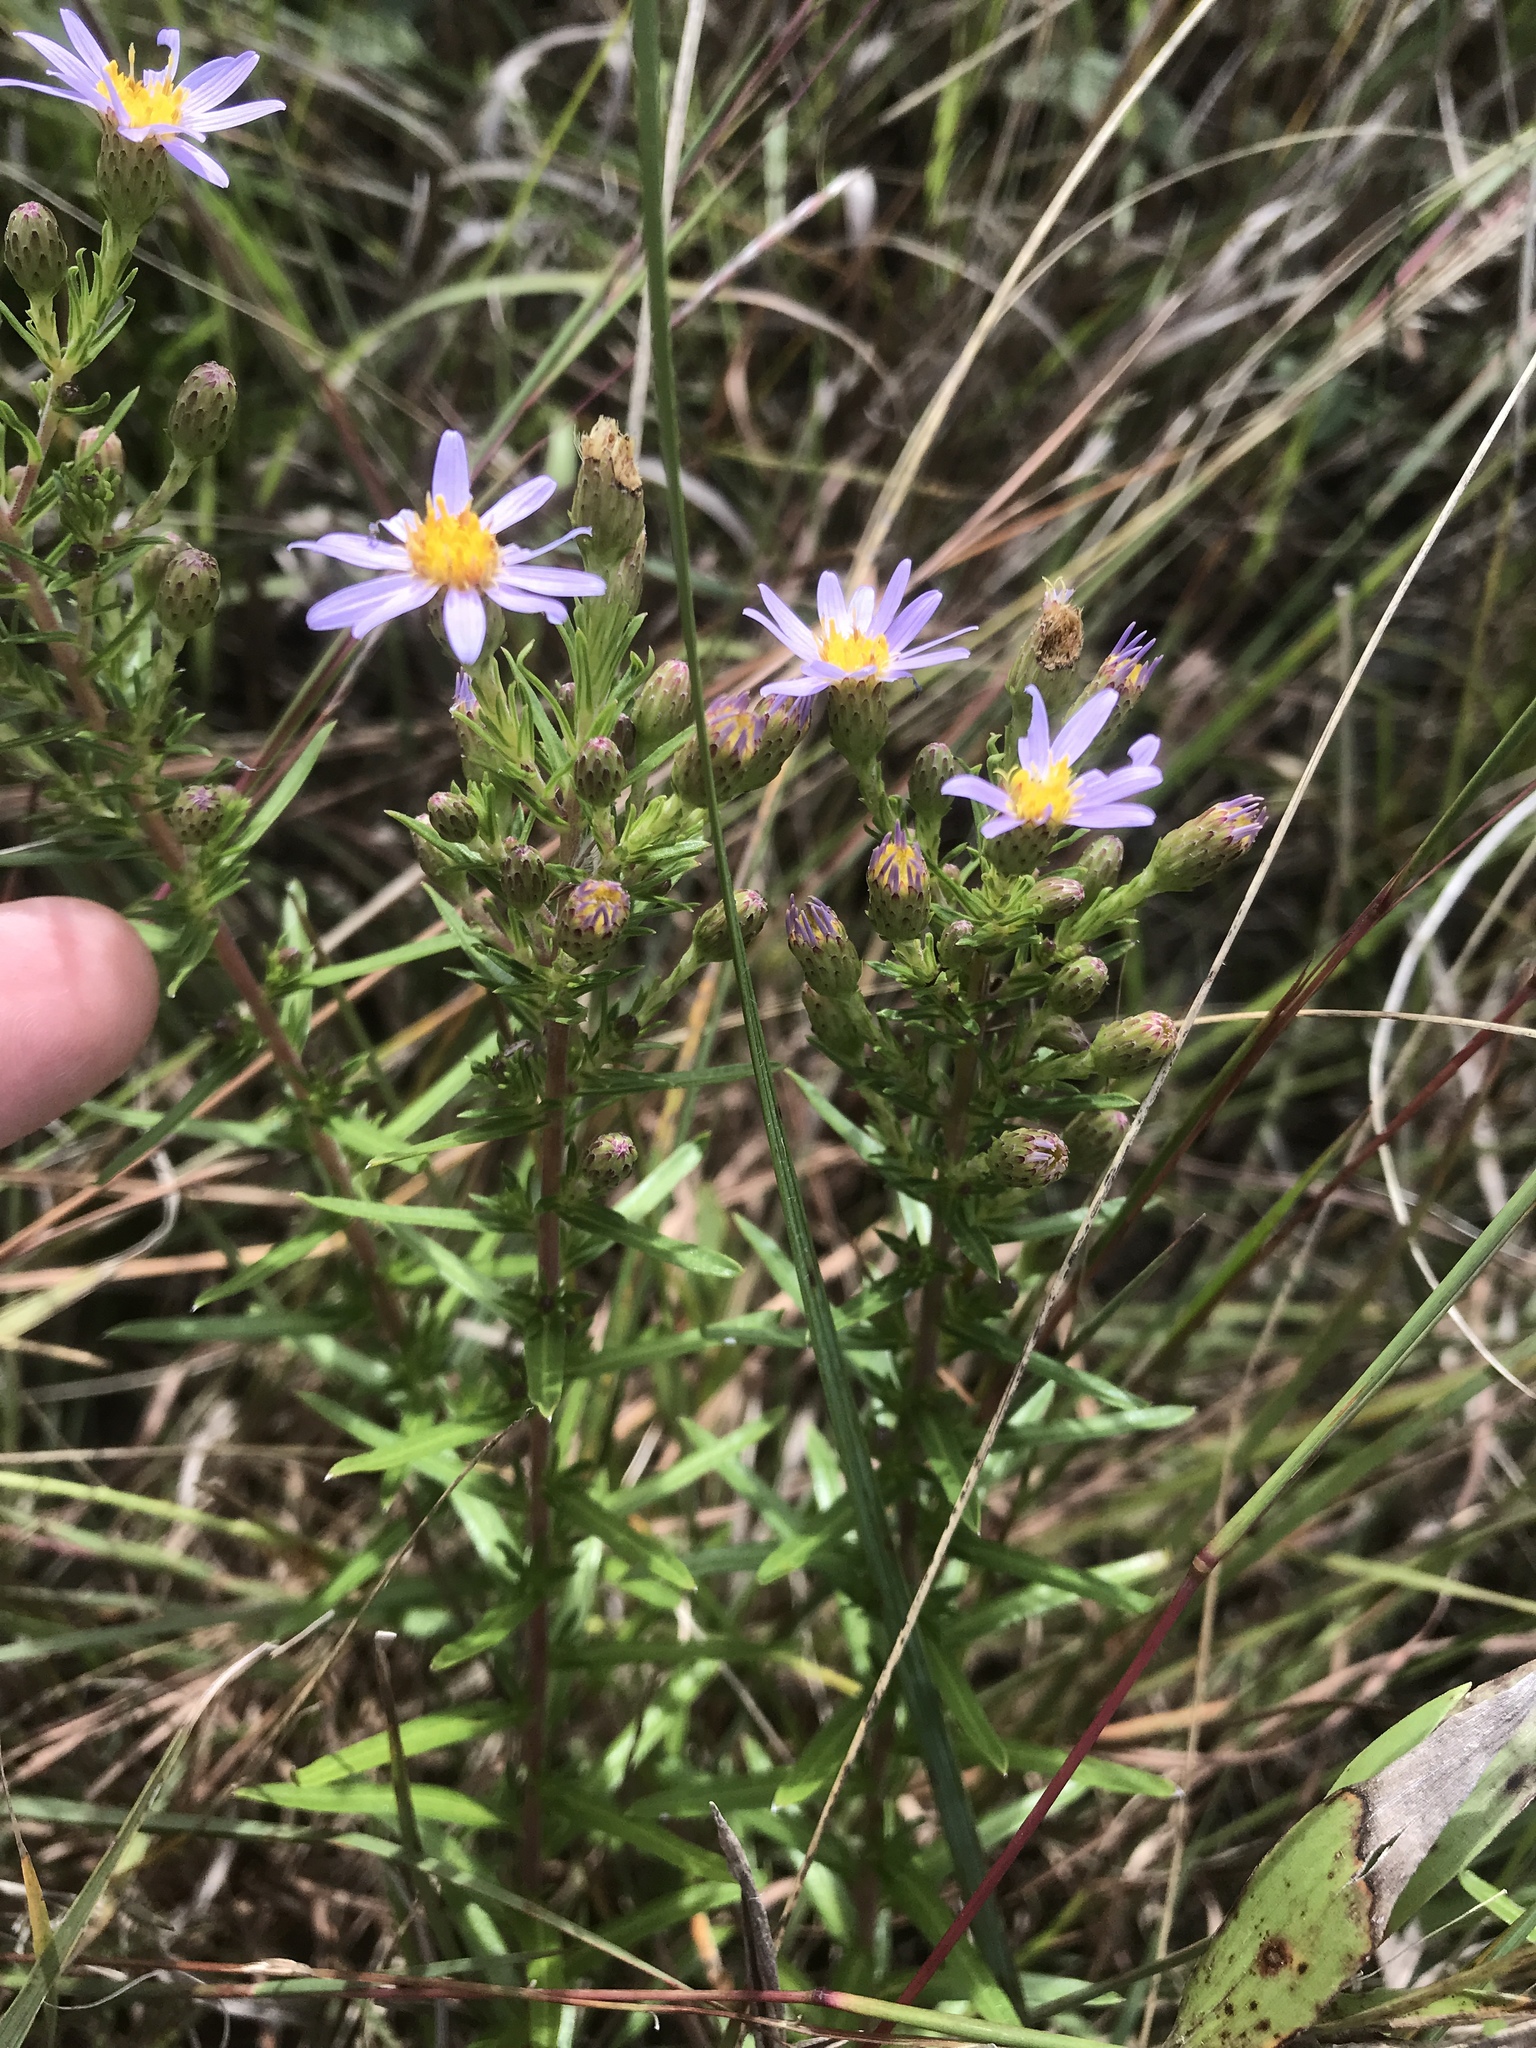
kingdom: Plantae
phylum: Tracheophyta
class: Magnoliopsida
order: Asterales
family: Asteraceae
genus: Ionactis
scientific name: Ionactis linariifolia
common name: Flax-leaf aster
